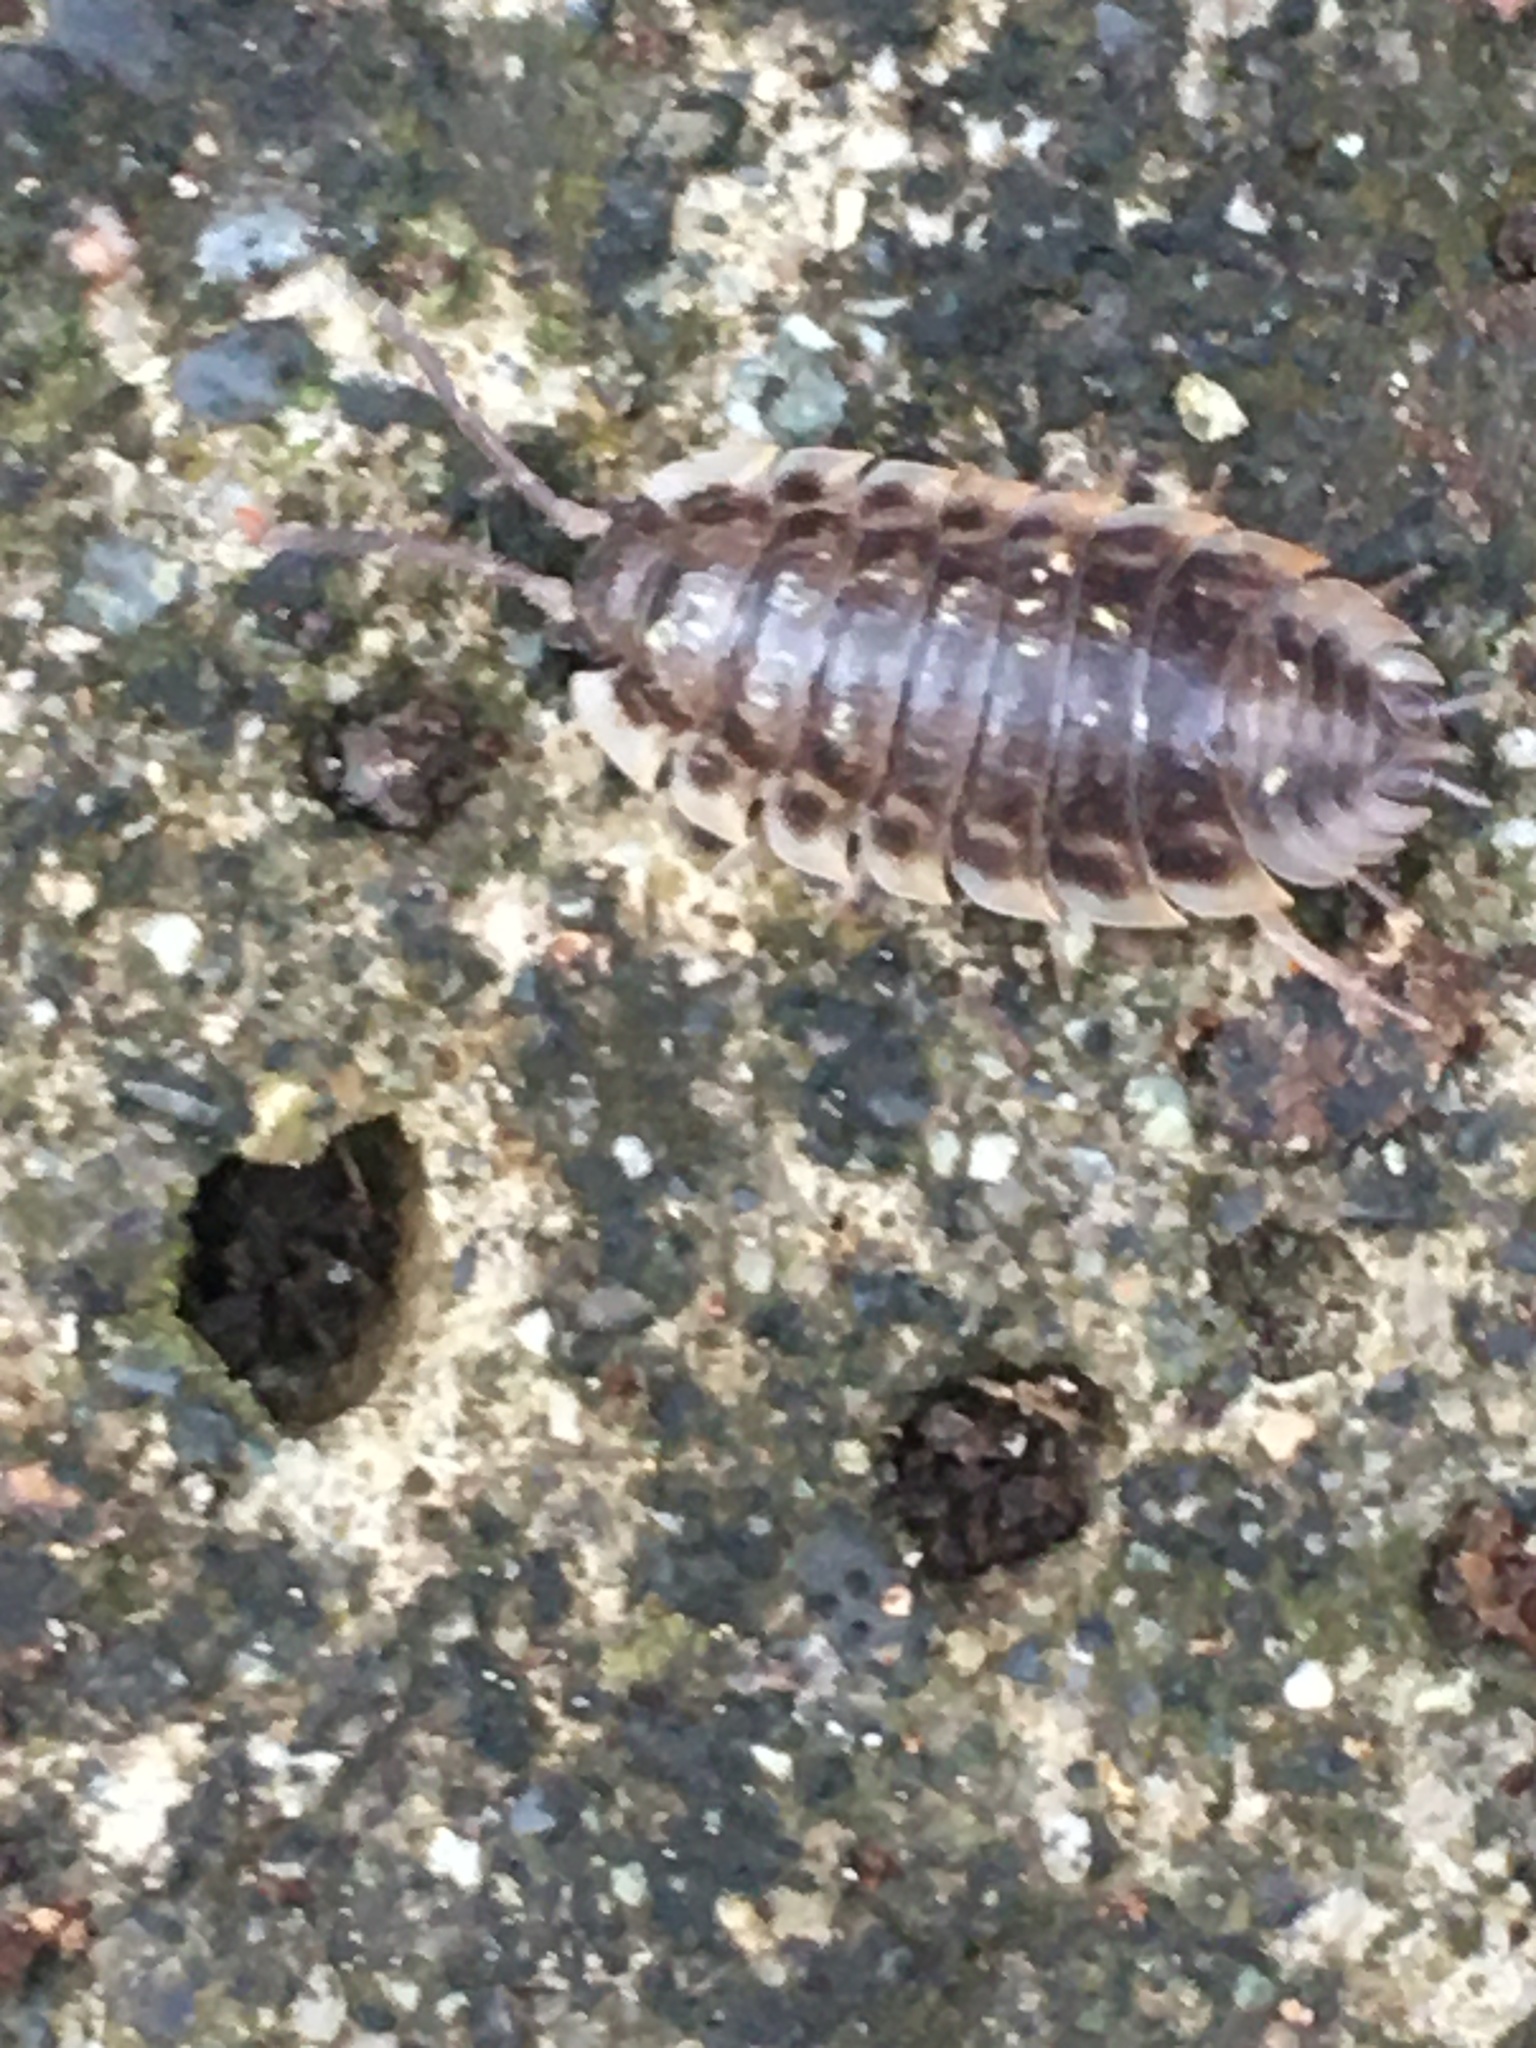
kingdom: Animalia
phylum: Arthropoda
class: Malacostraca
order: Isopoda
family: Oniscidae
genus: Oniscus
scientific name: Oniscus asellus
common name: Common shiny woodlouse
